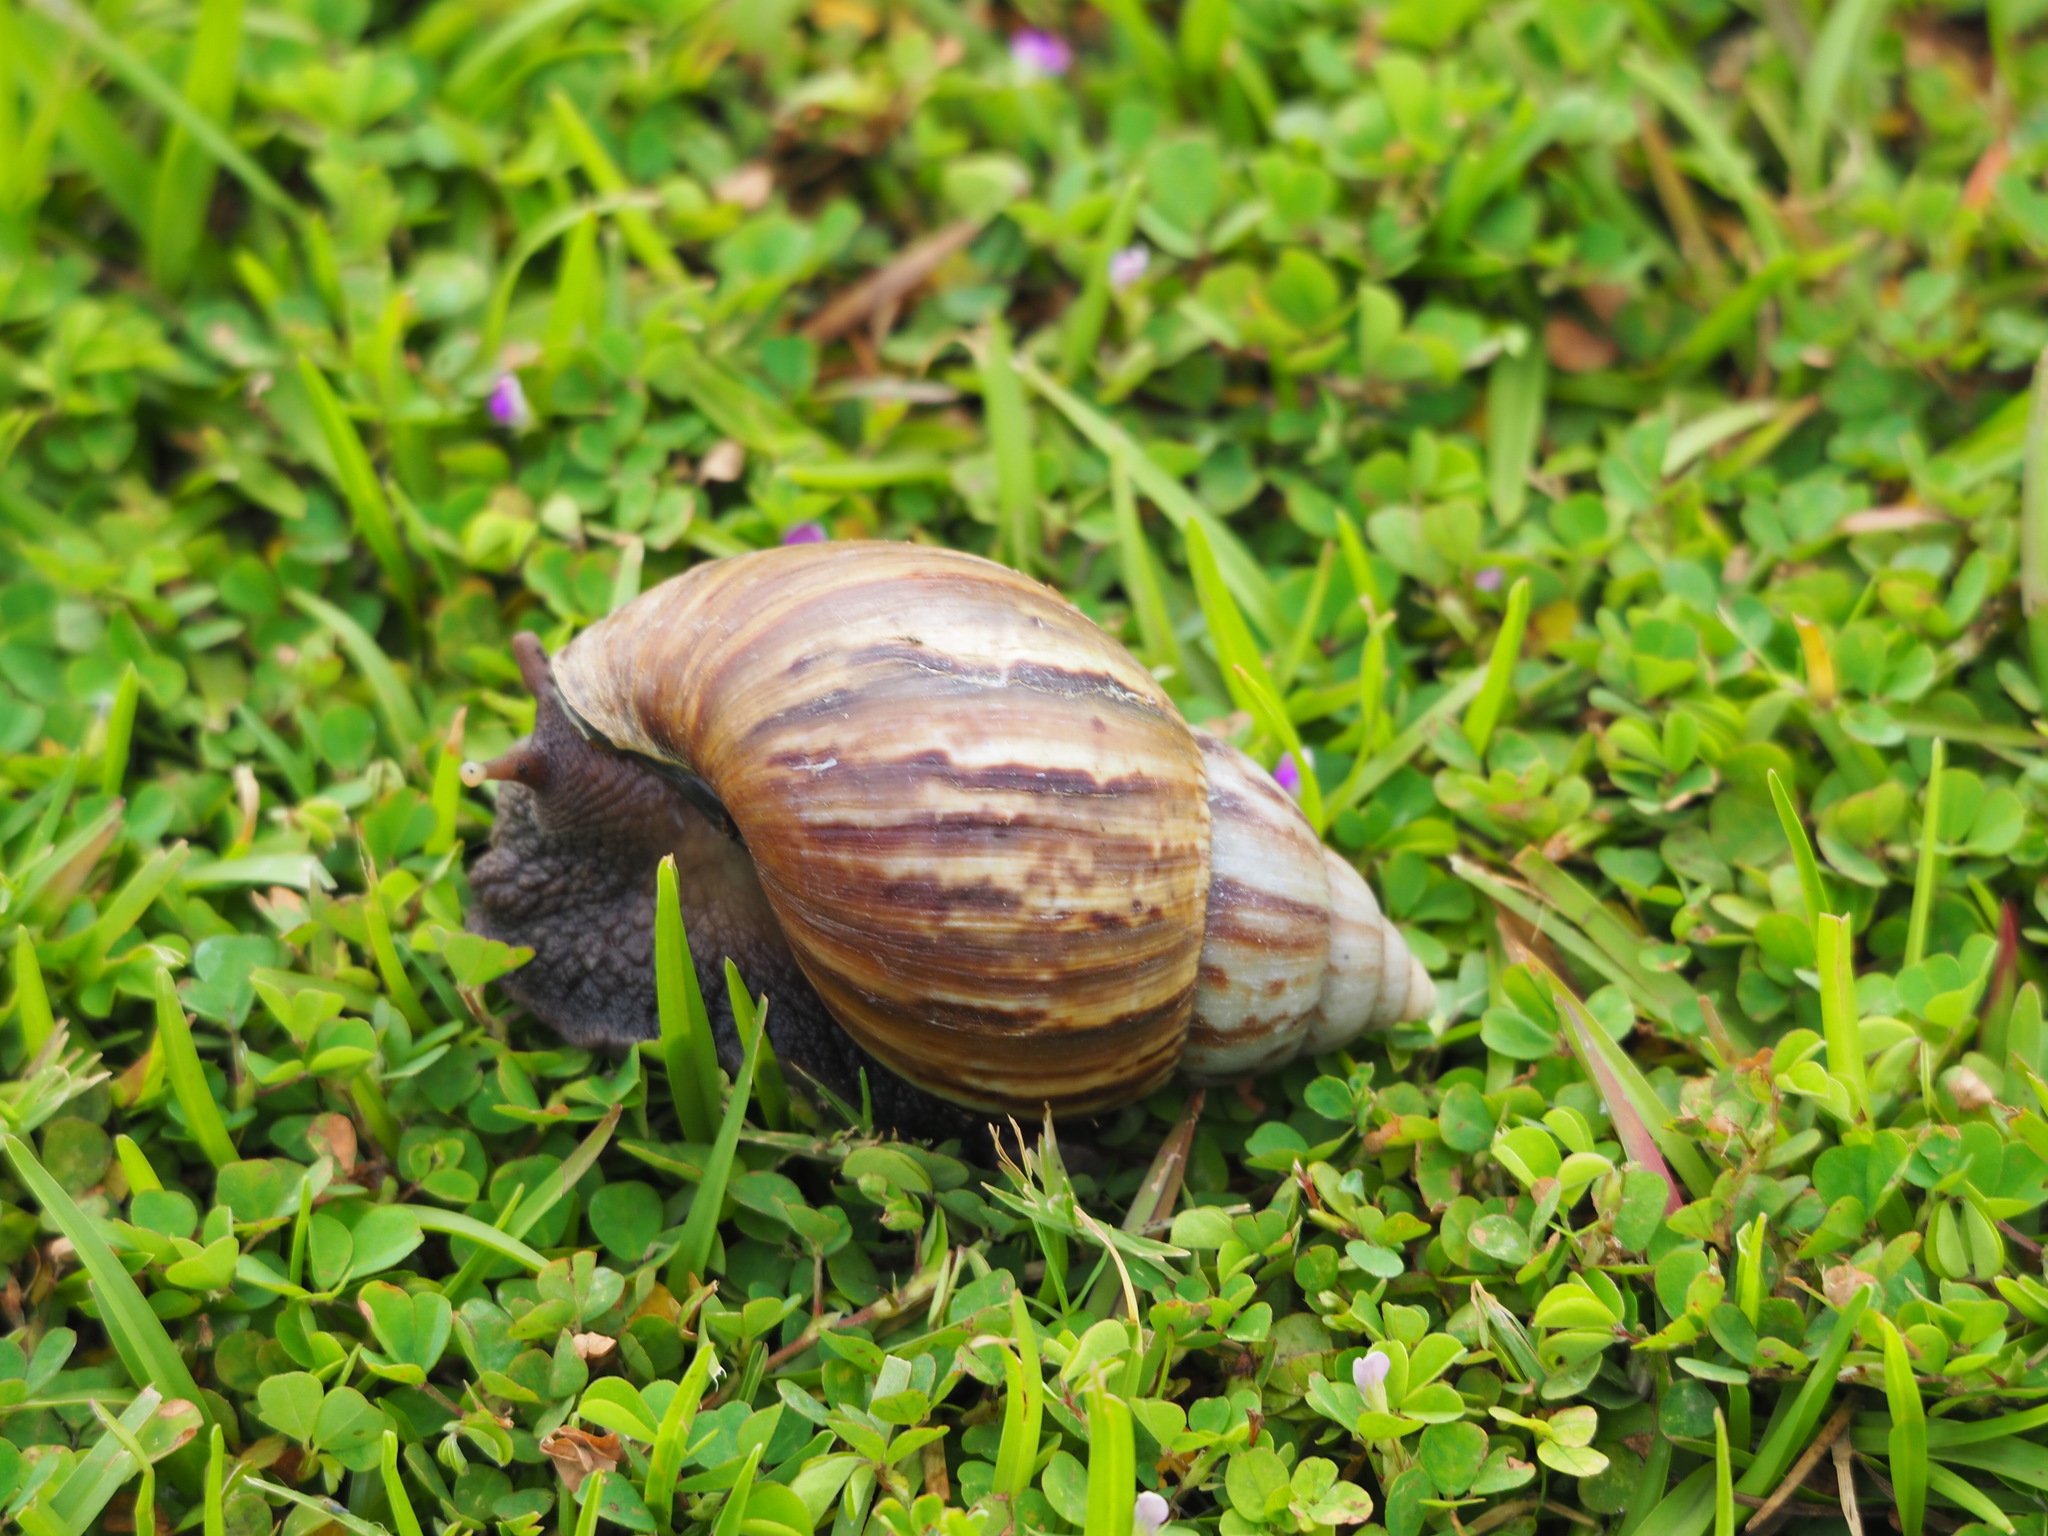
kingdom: Animalia
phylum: Mollusca
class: Gastropoda
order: Stylommatophora
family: Achatinidae
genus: Lissachatina
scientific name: Lissachatina fulica
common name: Giant african snail
